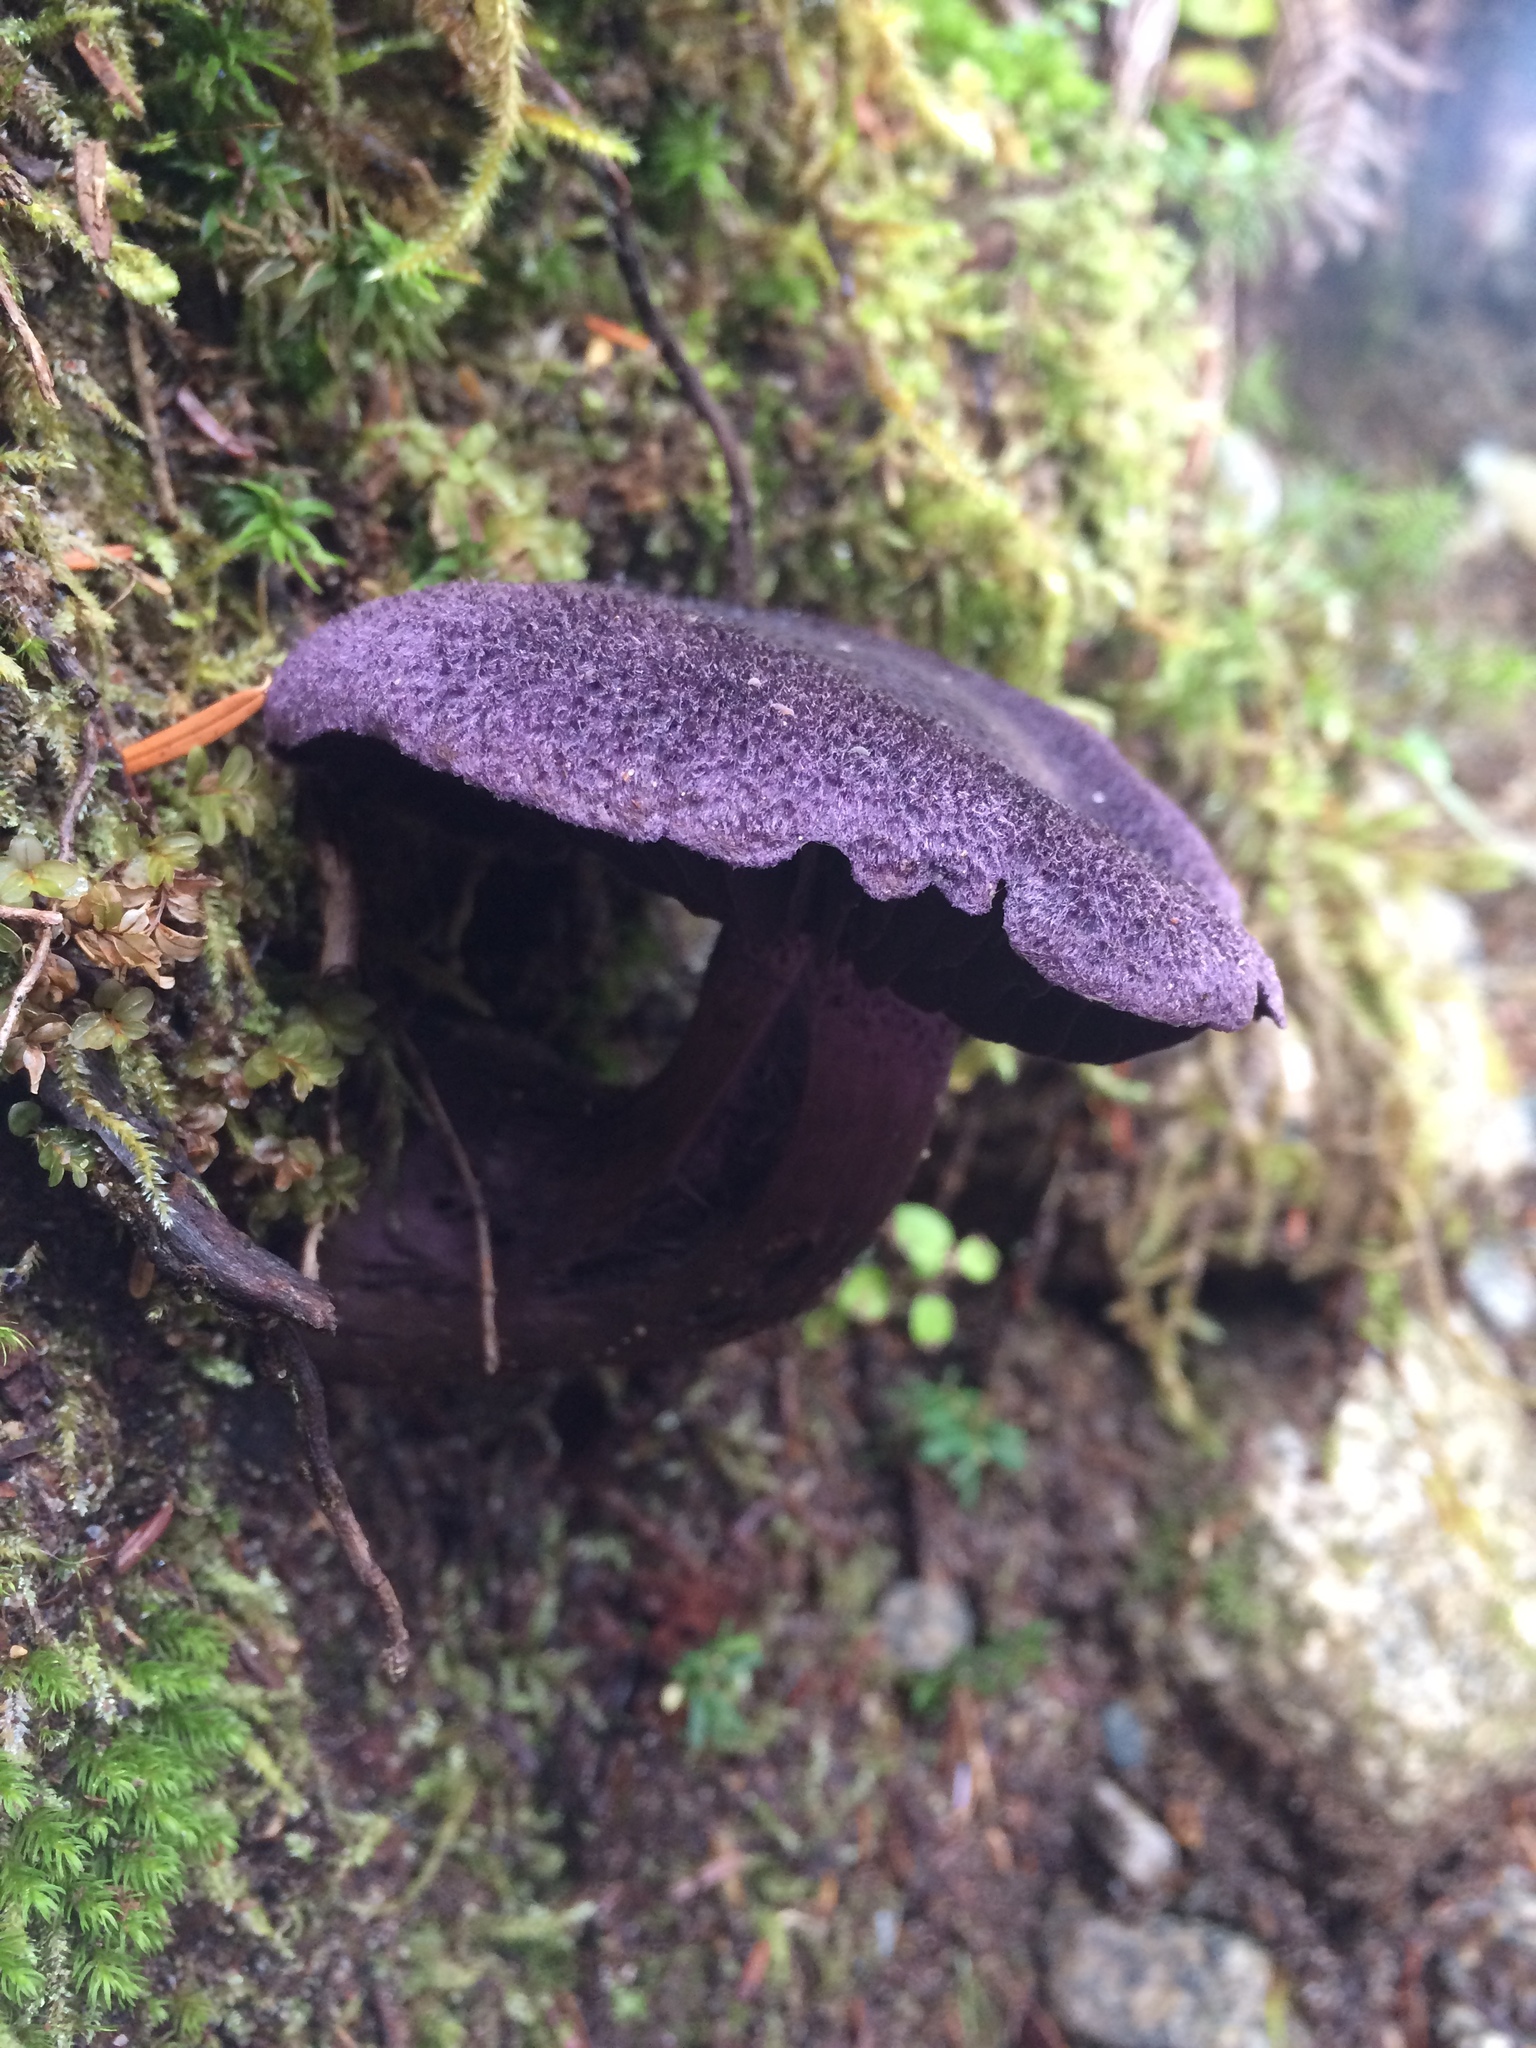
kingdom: Fungi
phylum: Basidiomycota
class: Agaricomycetes
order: Agaricales
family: Cortinariaceae
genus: Cortinarius
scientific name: Cortinarius violaceus
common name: Violet webcap
